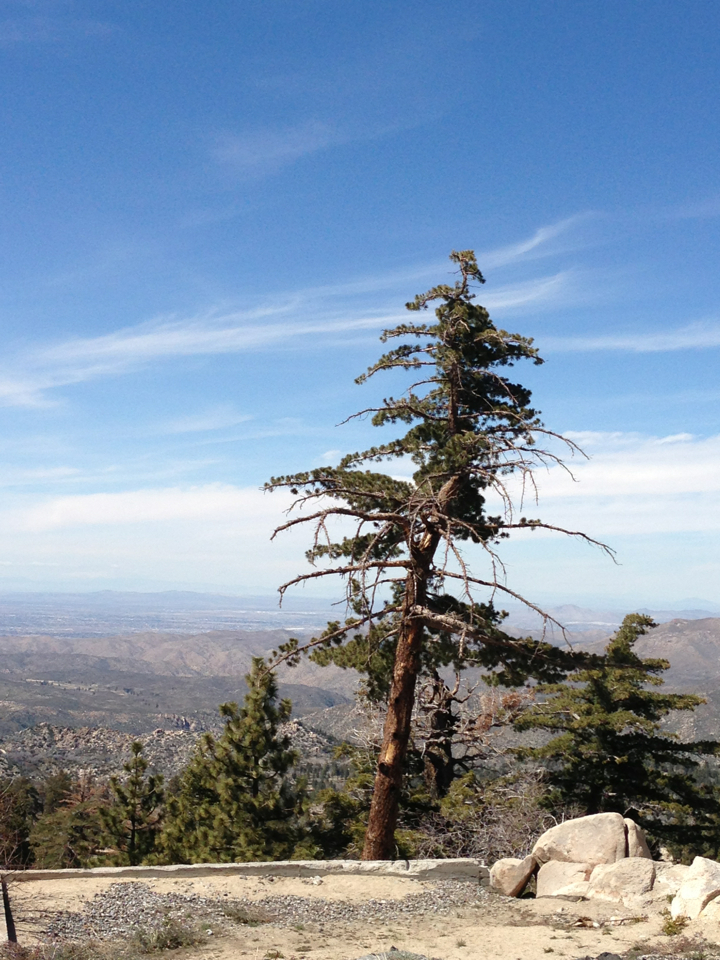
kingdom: Plantae
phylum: Tracheophyta
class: Pinopsida
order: Pinales
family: Pinaceae
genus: Pinus
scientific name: Pinus lambertiana
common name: Sugar pine
